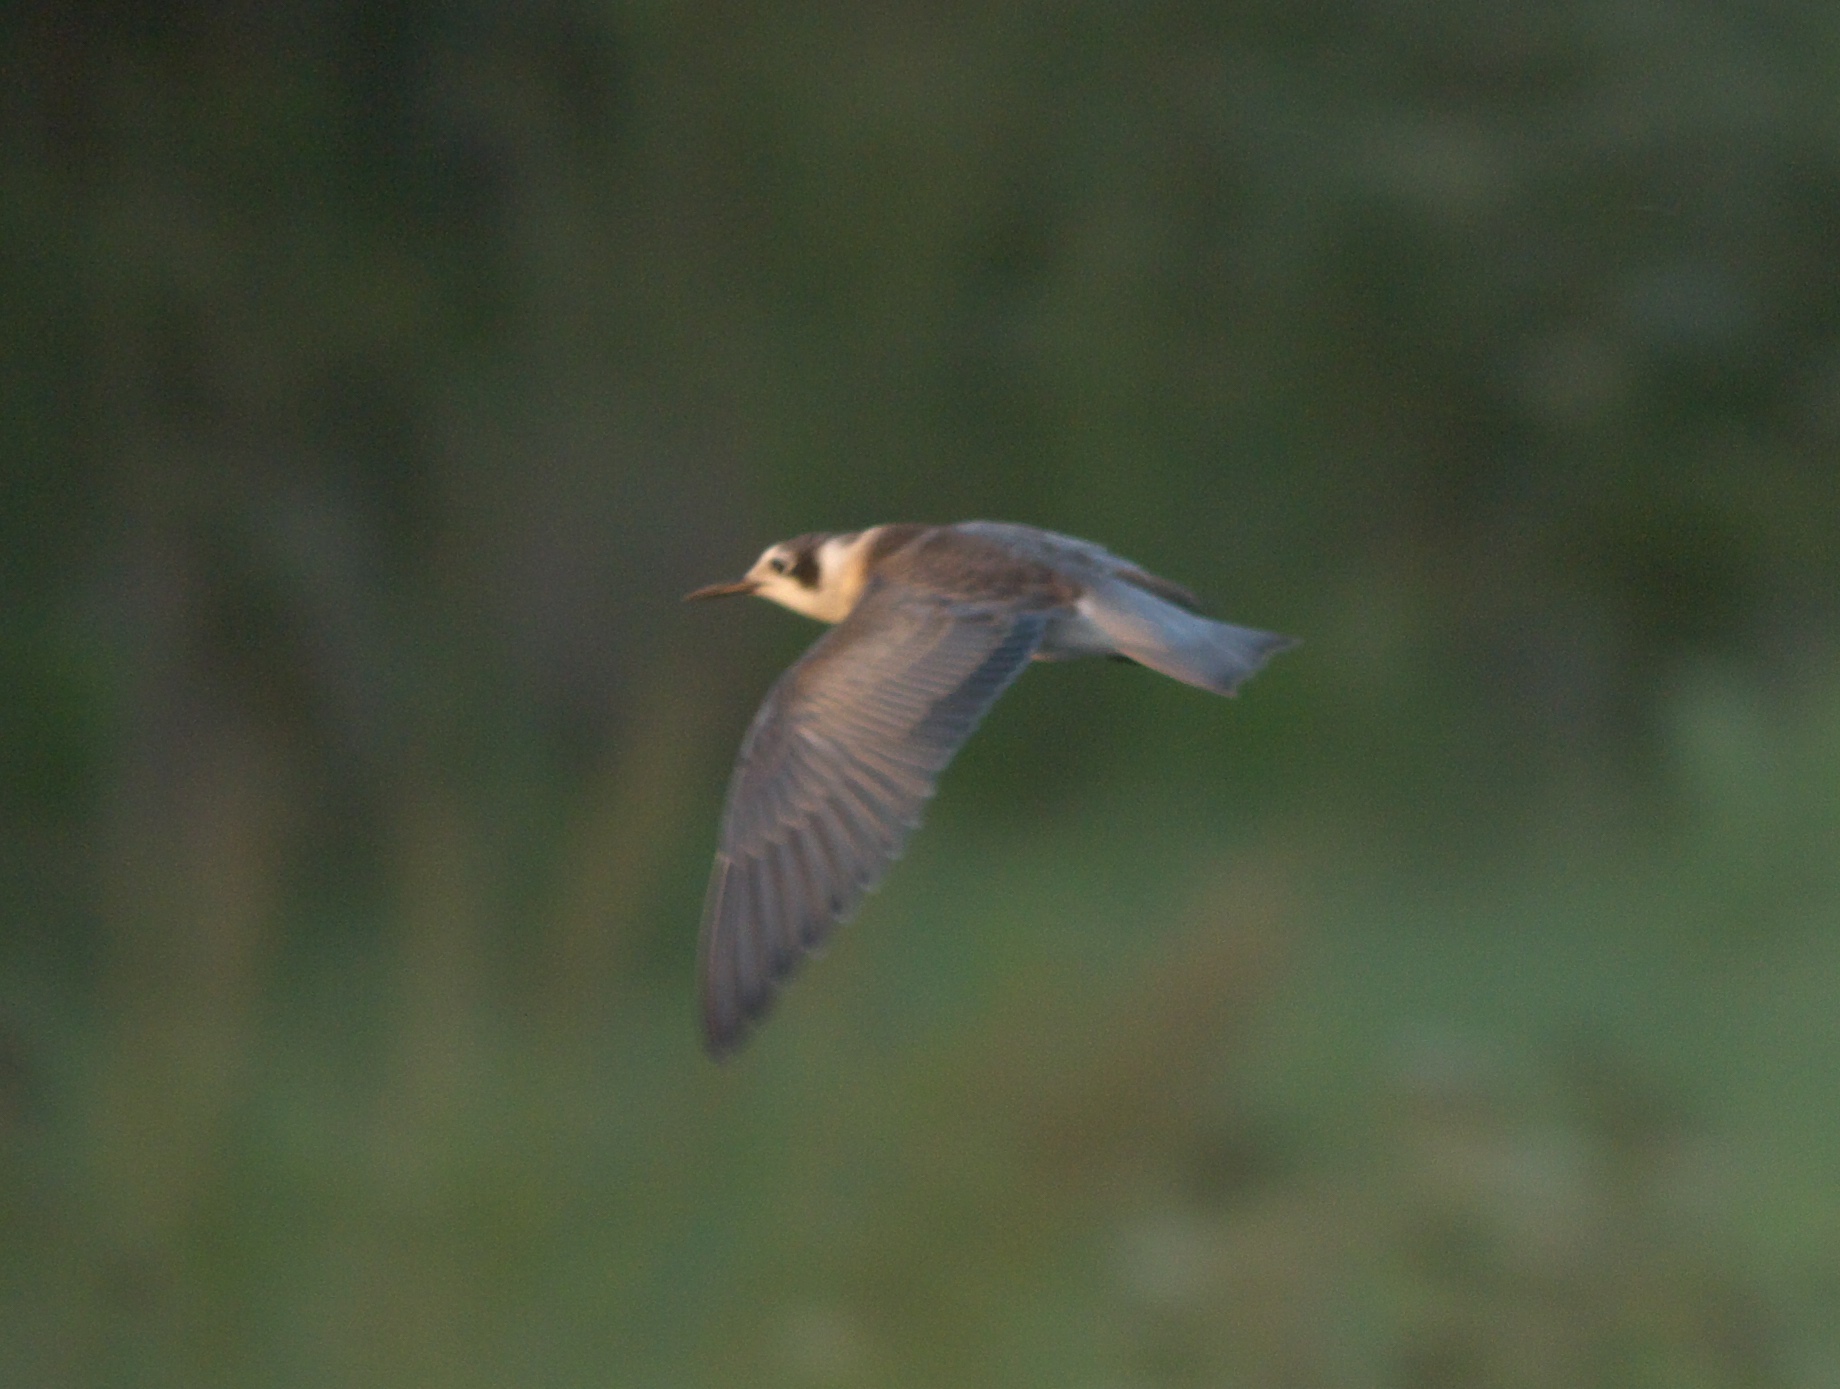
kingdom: Animalia
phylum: Chordata
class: Aves
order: Charadriiformes
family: Laridae
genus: Chlidonias
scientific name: Chlidonias niger
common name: Black tern
